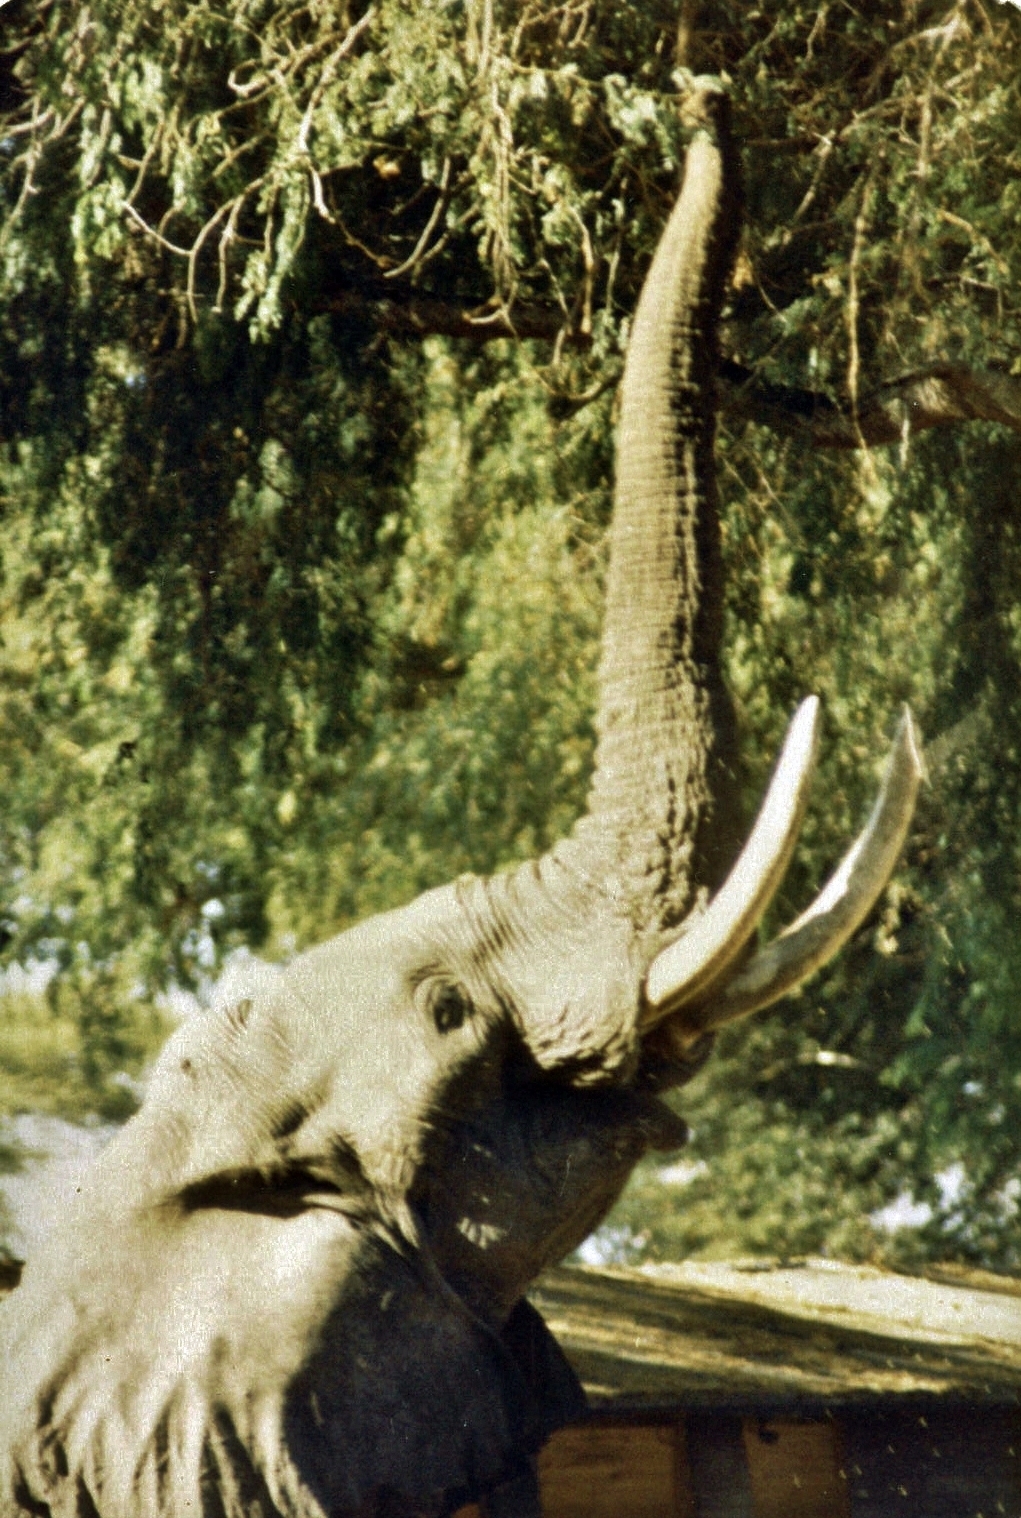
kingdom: Animalia
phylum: Chordata
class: Mammalia
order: Proboscidea
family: Elephantidae
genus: Loxodonta
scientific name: Loxodonta africana
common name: African elephant
